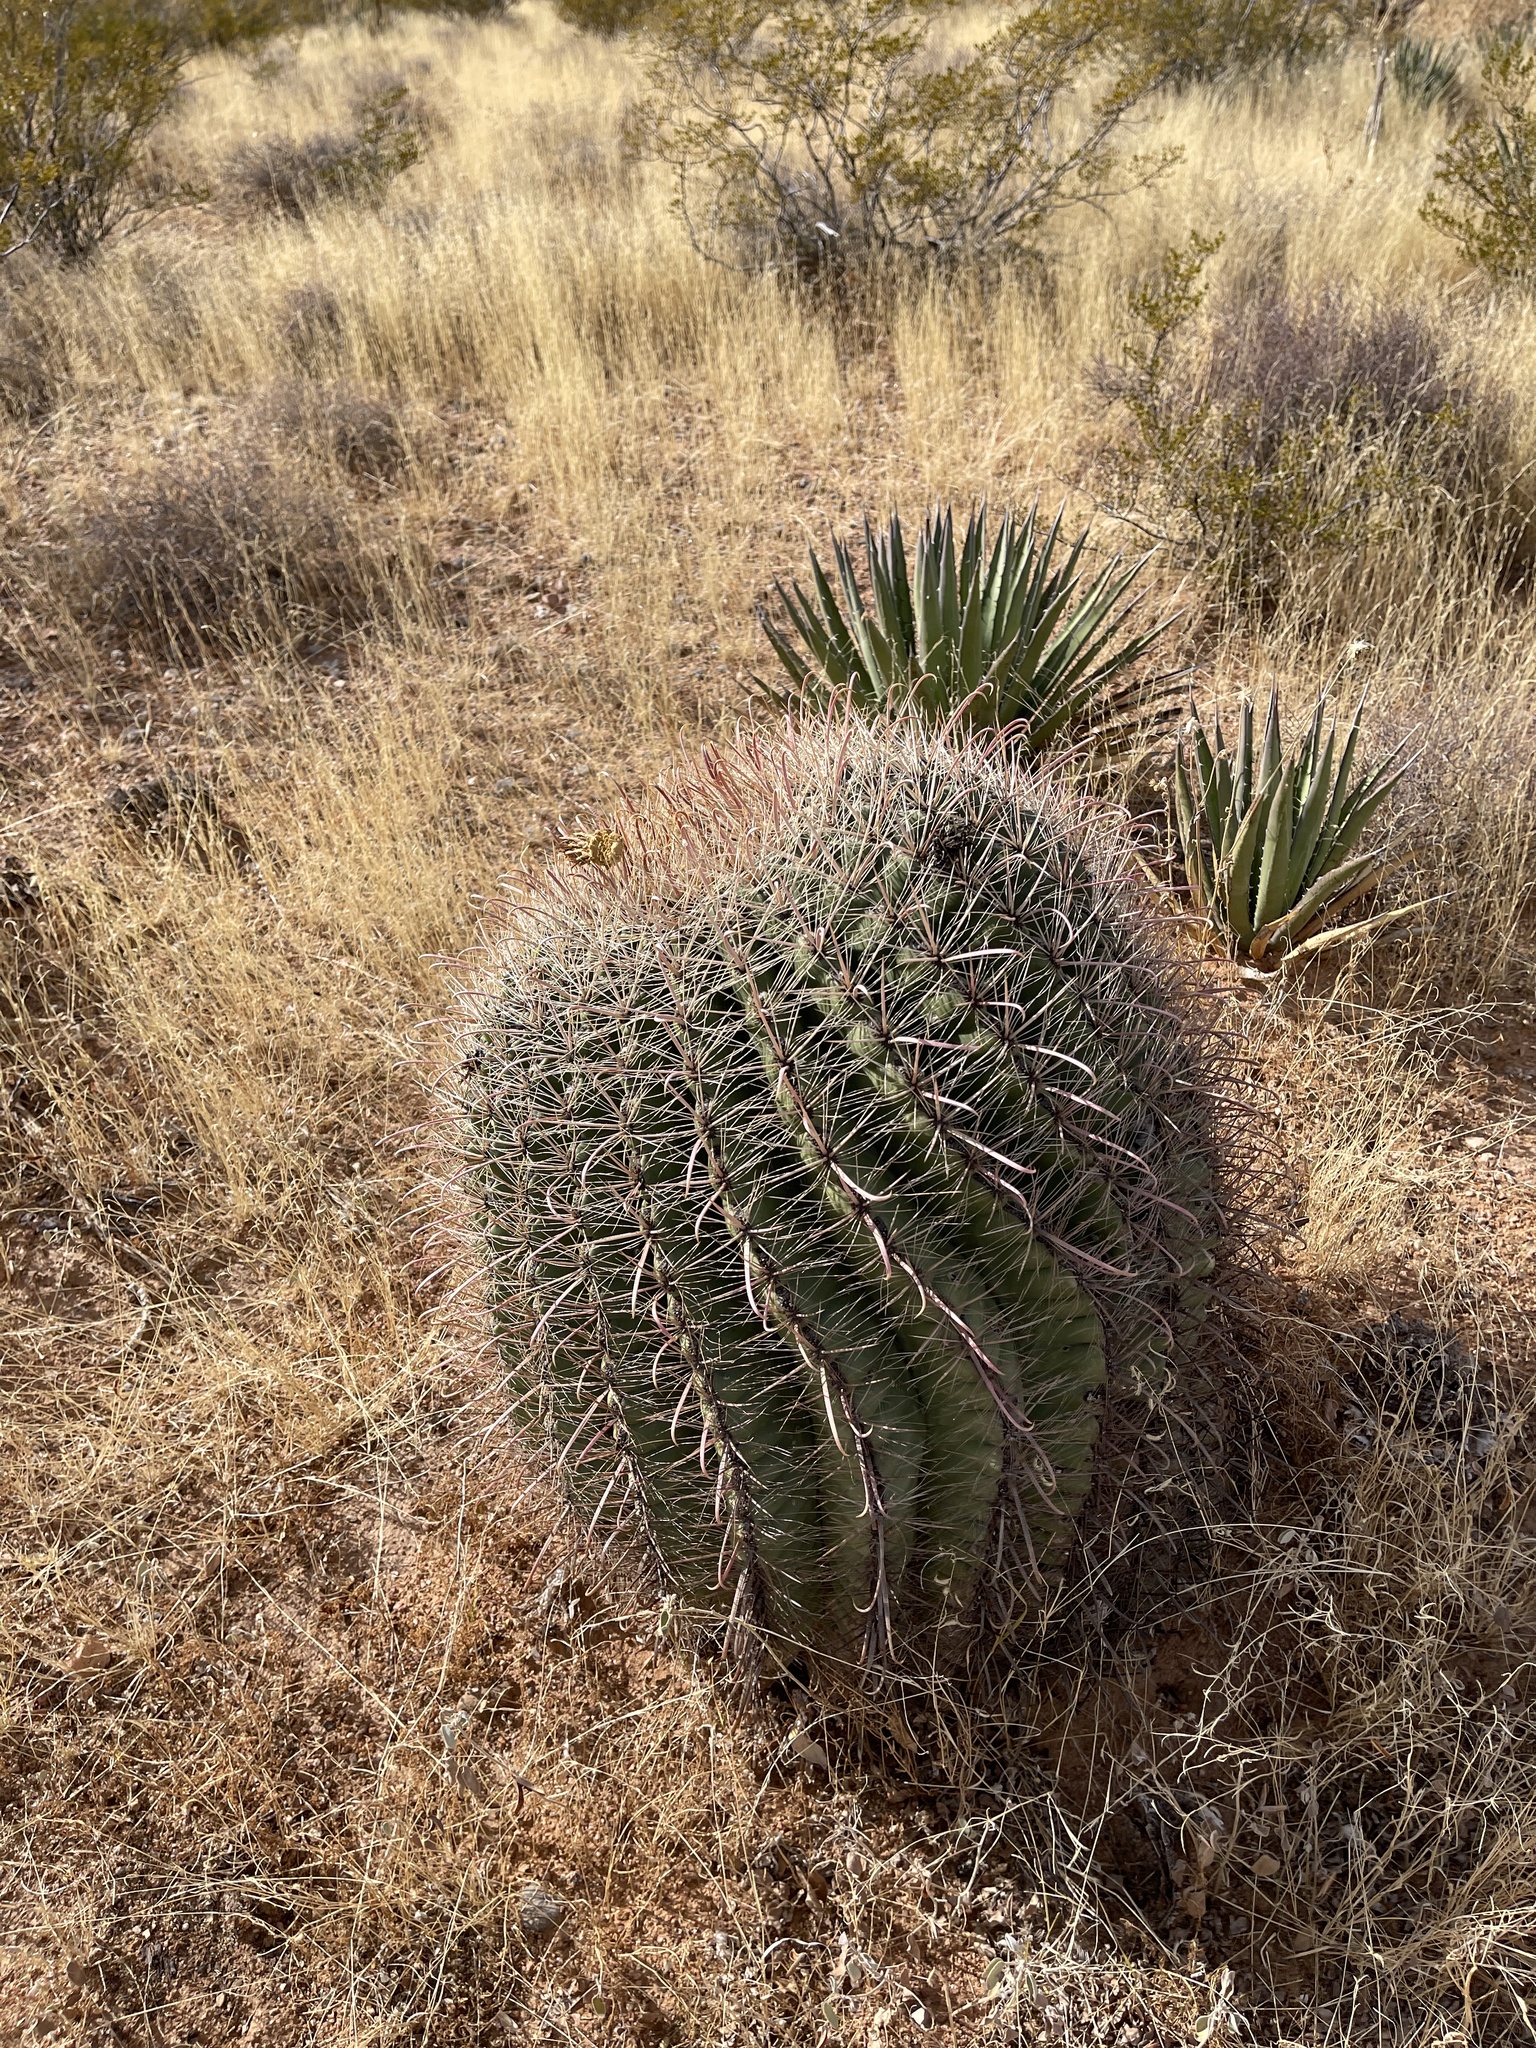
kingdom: Plantae
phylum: Tracheophyta
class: Magnoliopsida
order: Caryophyllales
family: Cactaceae
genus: Ferocactus
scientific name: Ferocactus wislizeni
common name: Candy barrel cactus
